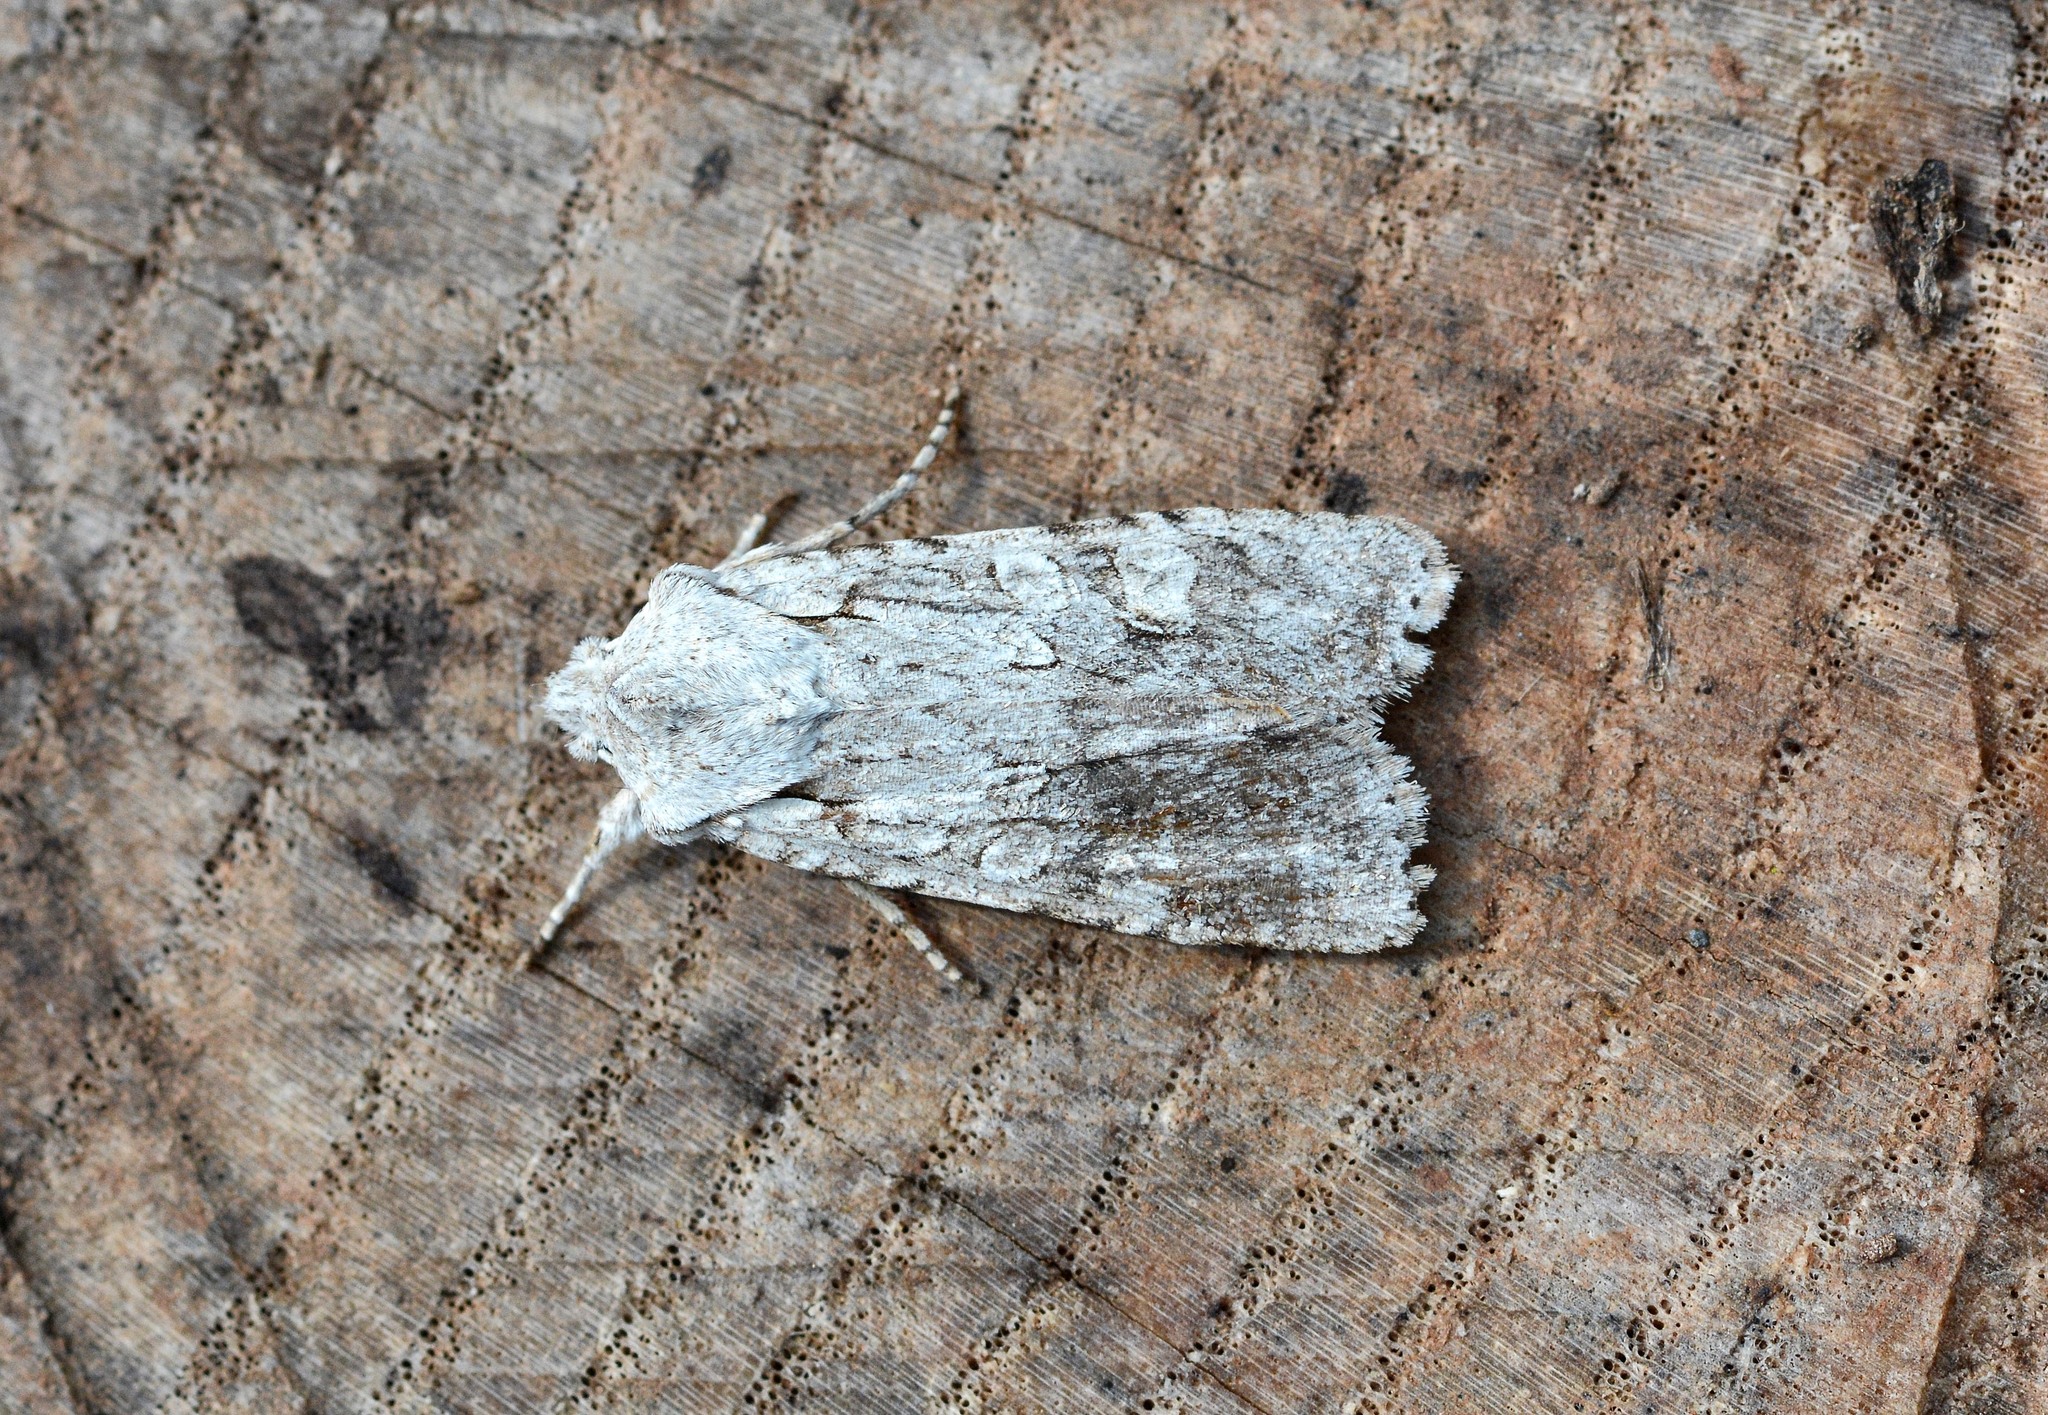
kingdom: Animalia
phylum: Arthropoda
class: Insecta
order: Lepidoptera
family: Noctuidae
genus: Lithophane
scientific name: Lithophane ornitopus
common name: Grey shoulder-knot
